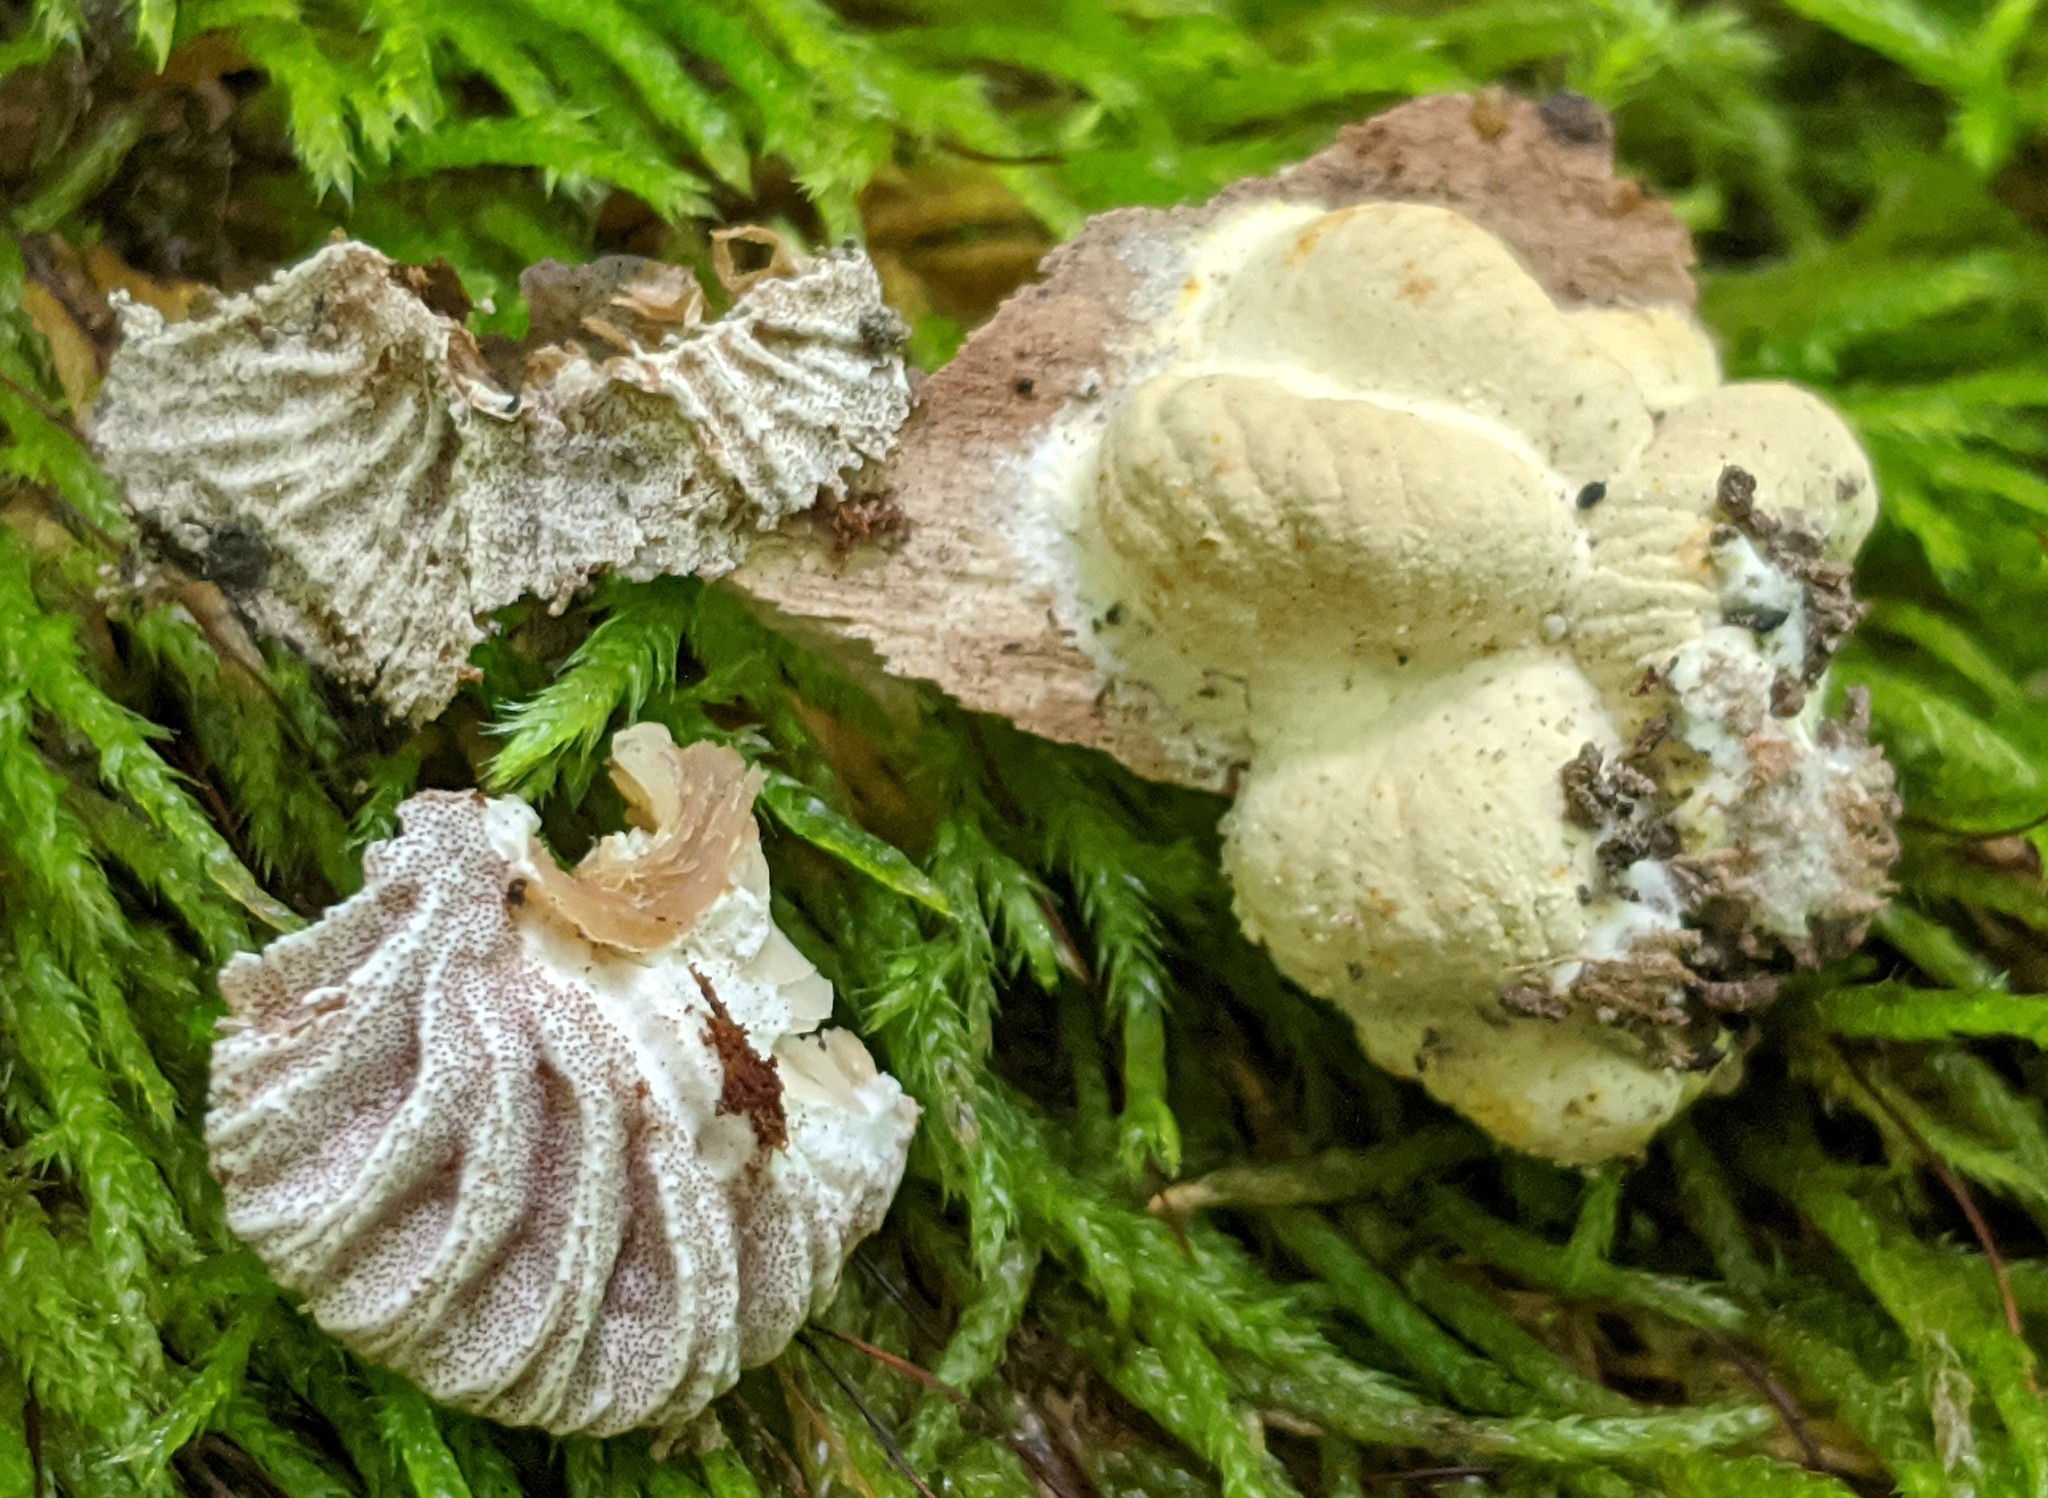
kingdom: Fungi
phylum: Ascomycota
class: Sordariomycetes
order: Hypocreales
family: Bionectriaceae
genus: Nectriopsis
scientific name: Nectriopsis tremellicola
